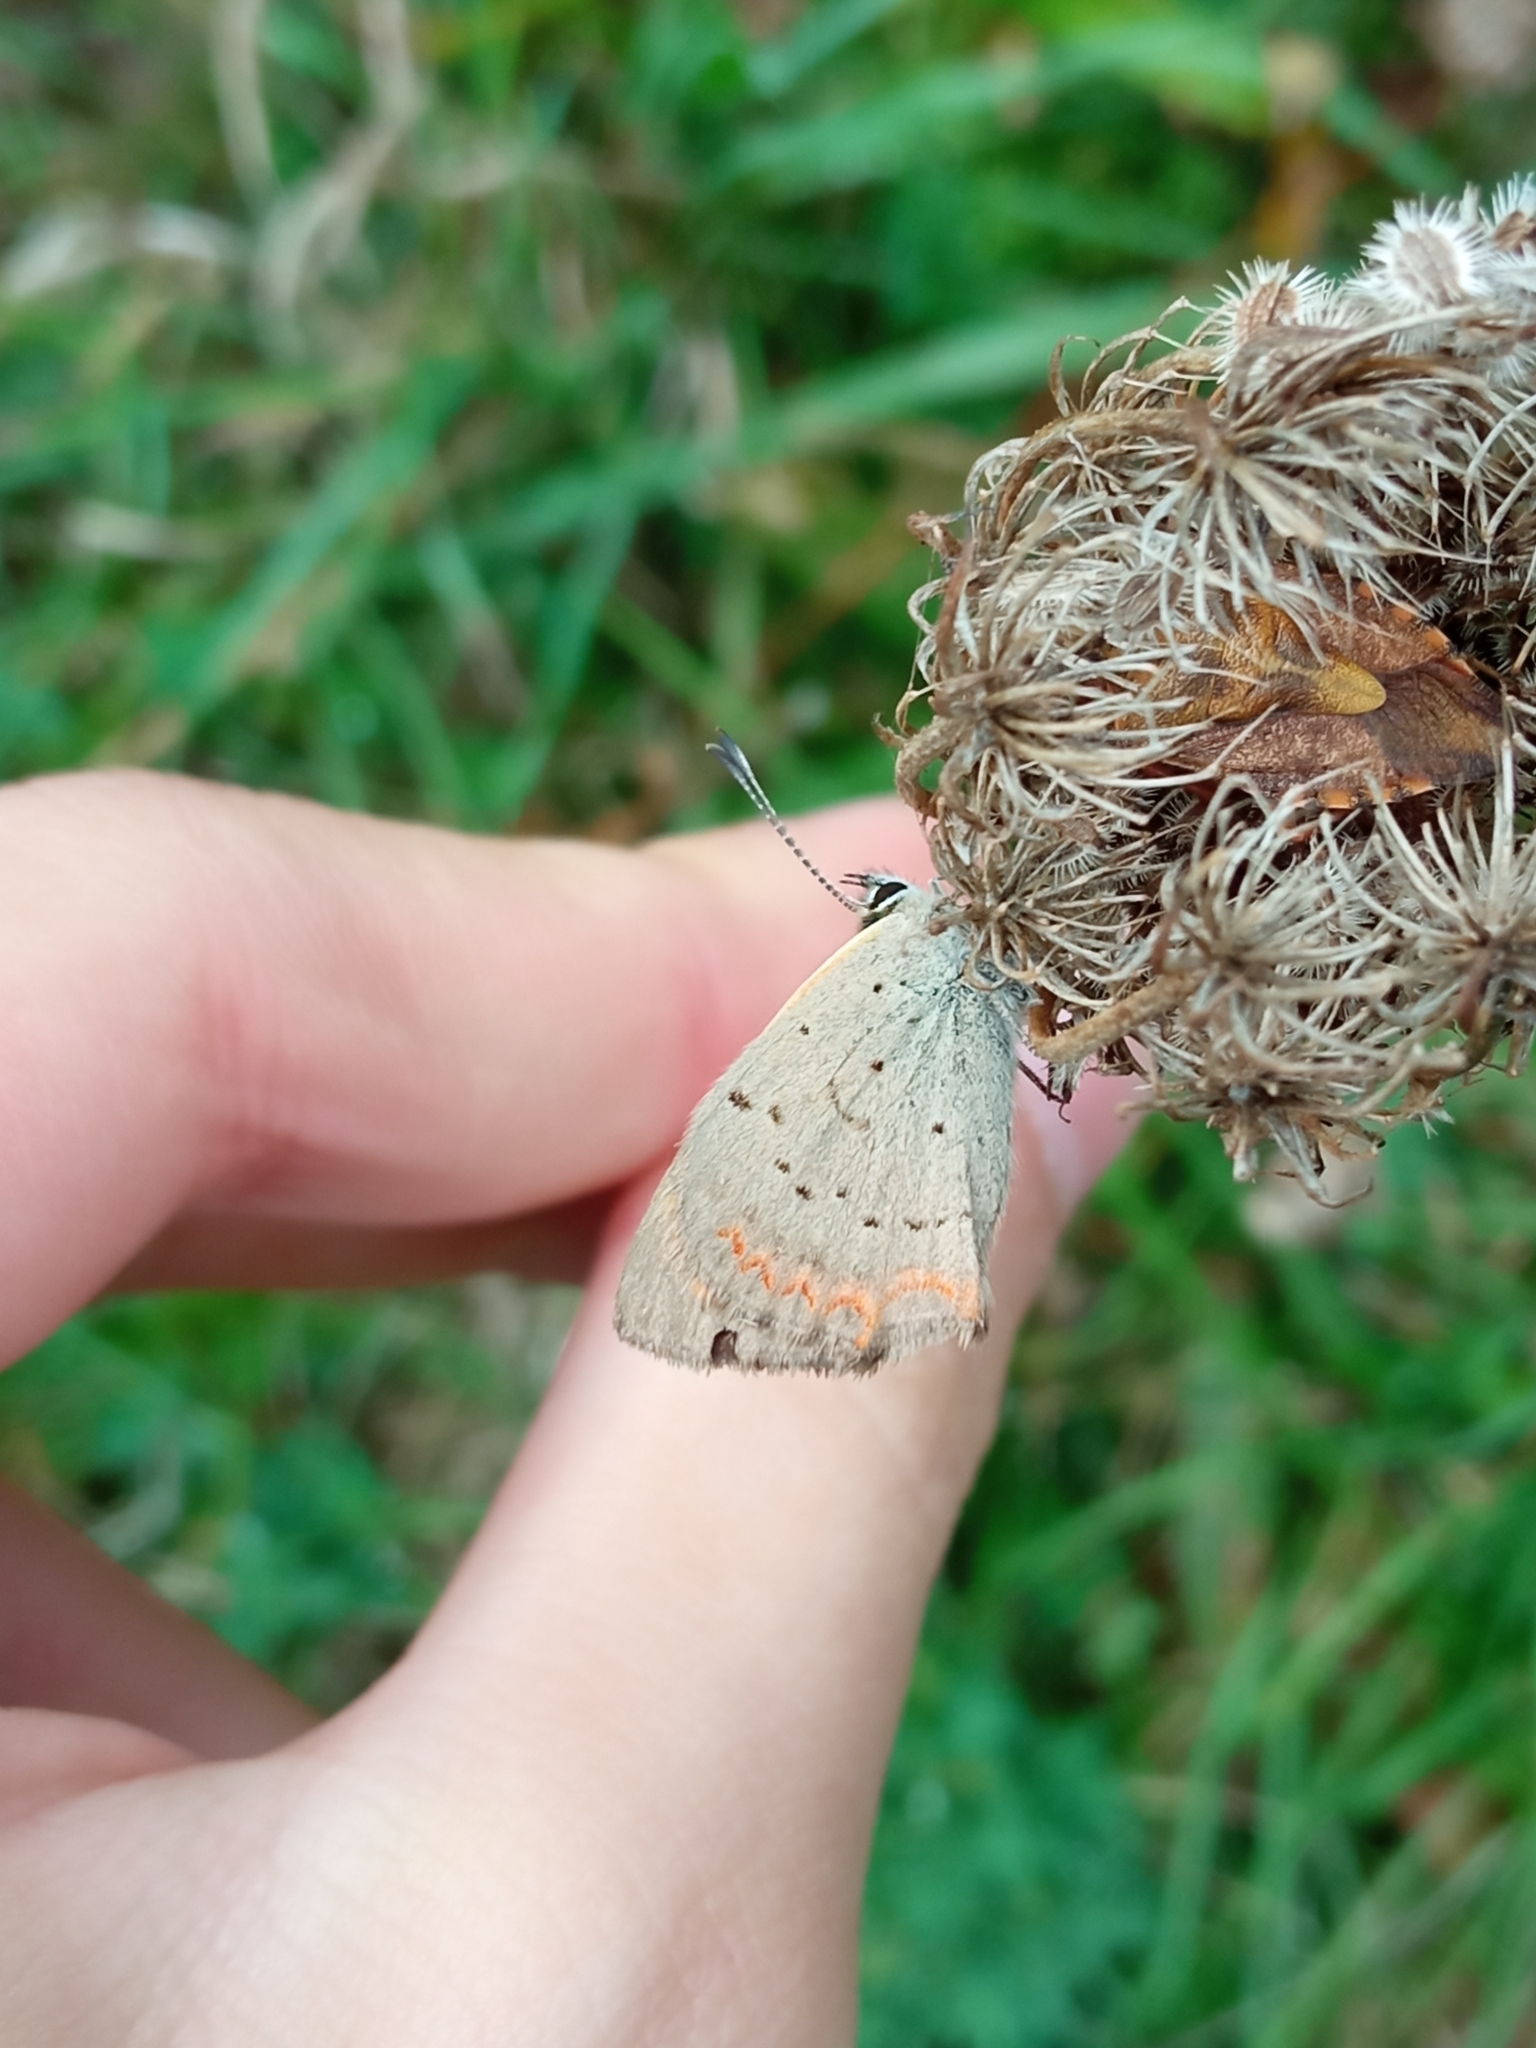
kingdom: Animalia
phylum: Arthropoda
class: Insecta
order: Lepidoptera
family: Lycaenidae
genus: Lycaena
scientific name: Lycaena phlaeas
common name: Small copper
